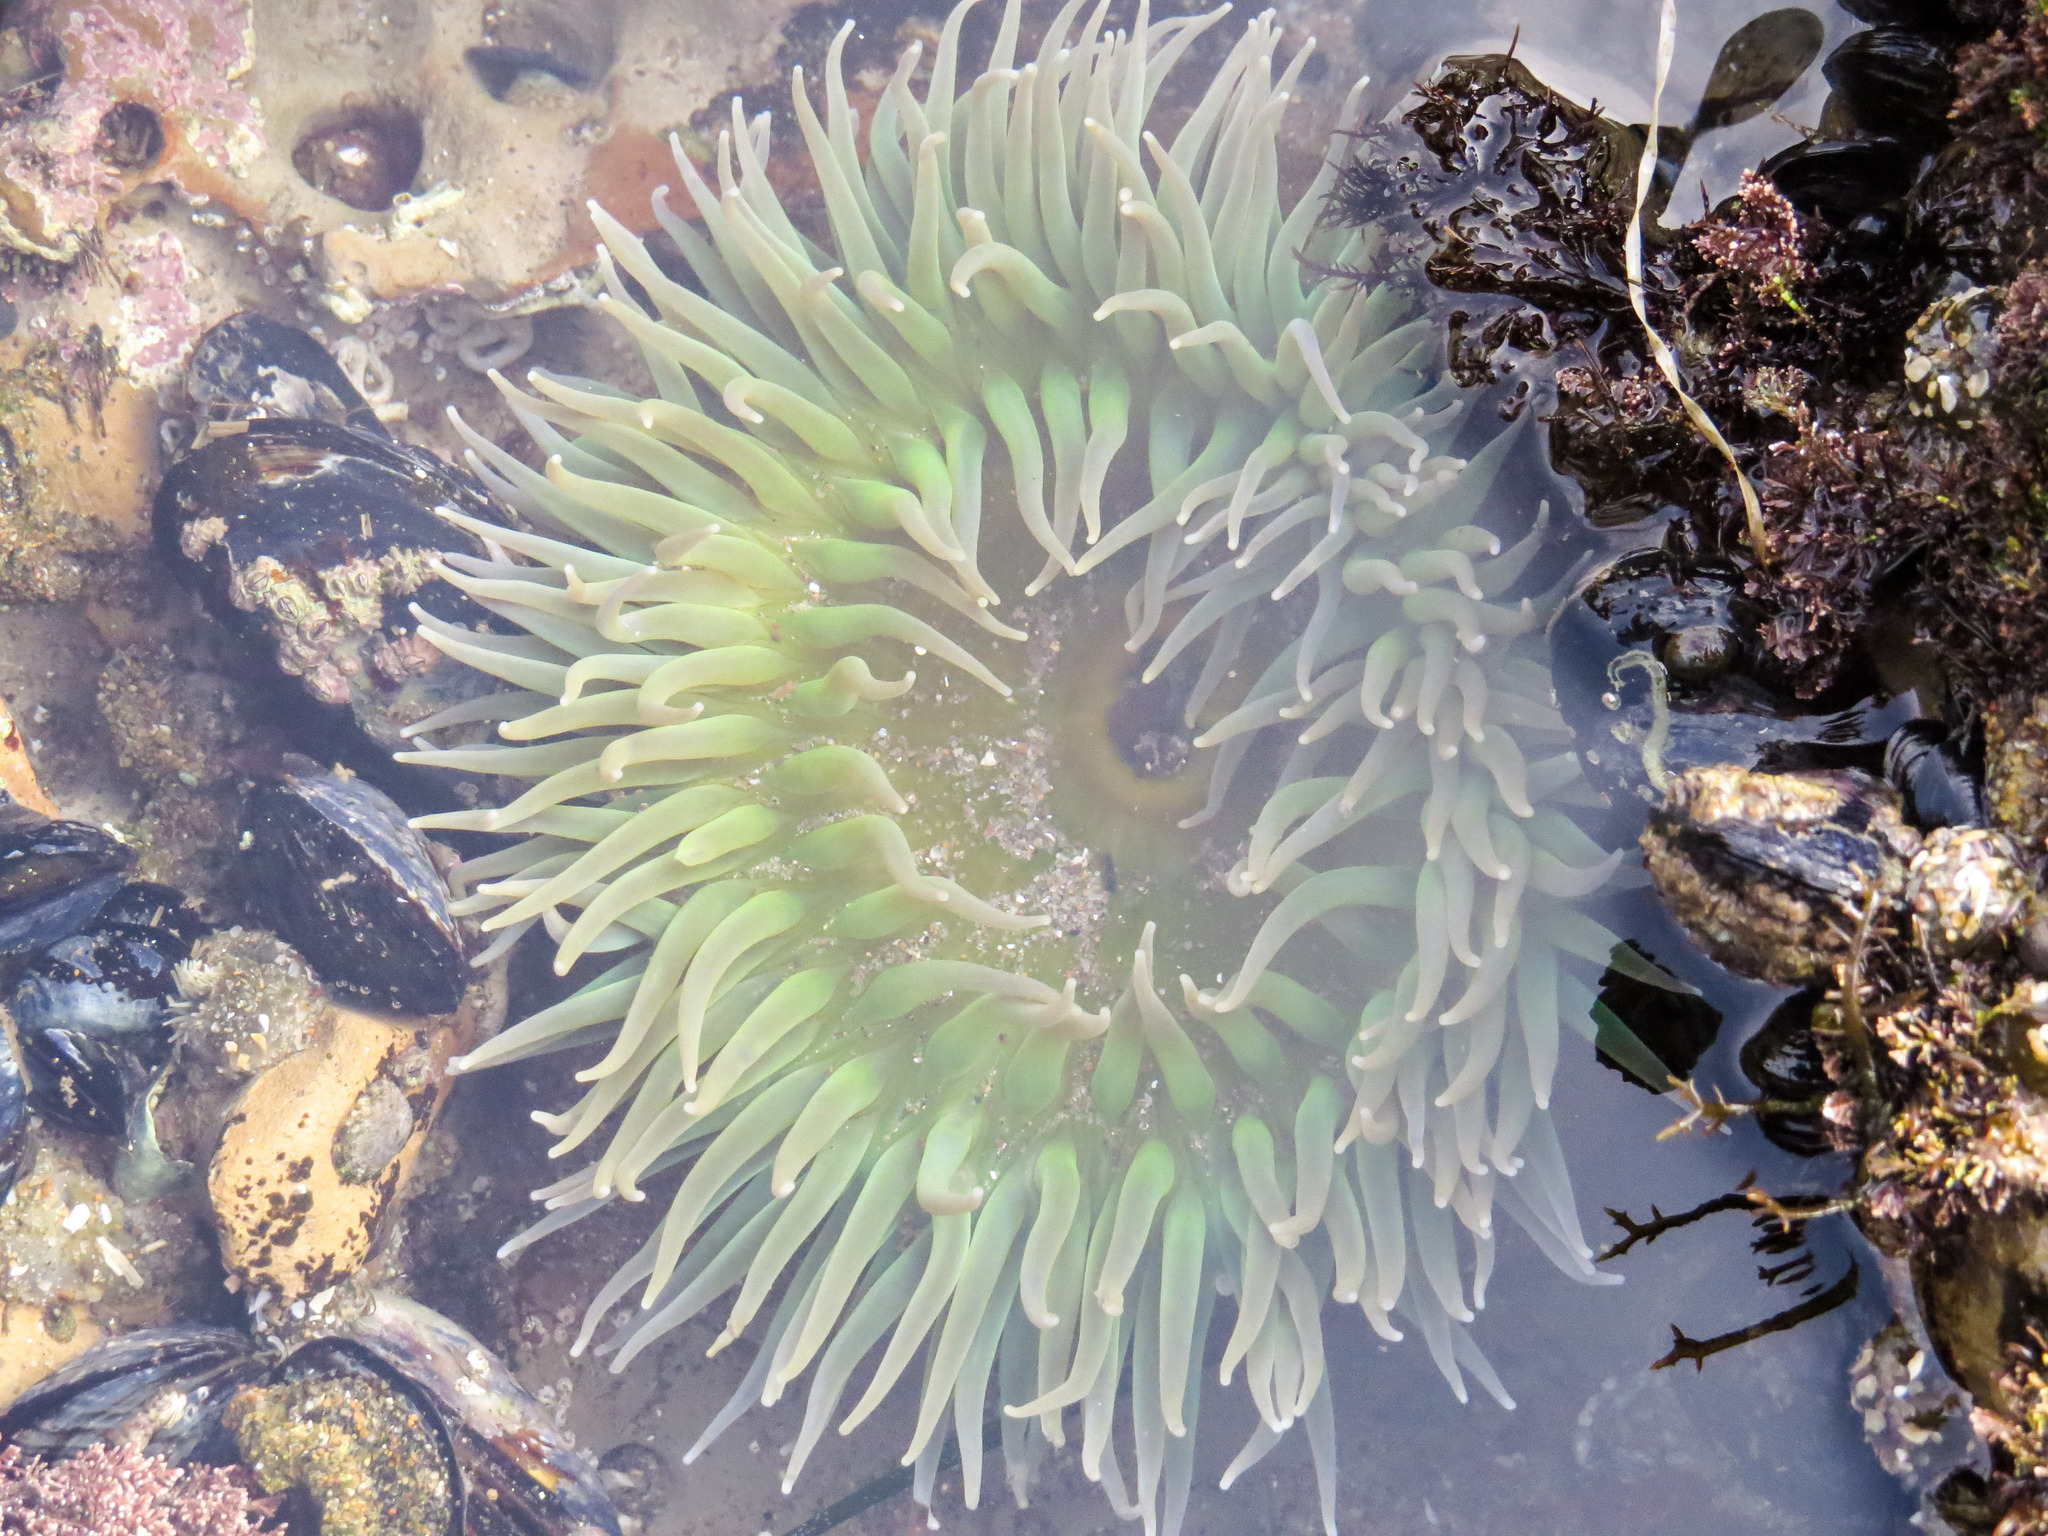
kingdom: Animalia
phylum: Cnidaria
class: Anthozoa
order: Actiniaria
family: Actiniidae
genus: Anthopleura
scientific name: Anthopleura xanthogrammica
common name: Giant green anemone
